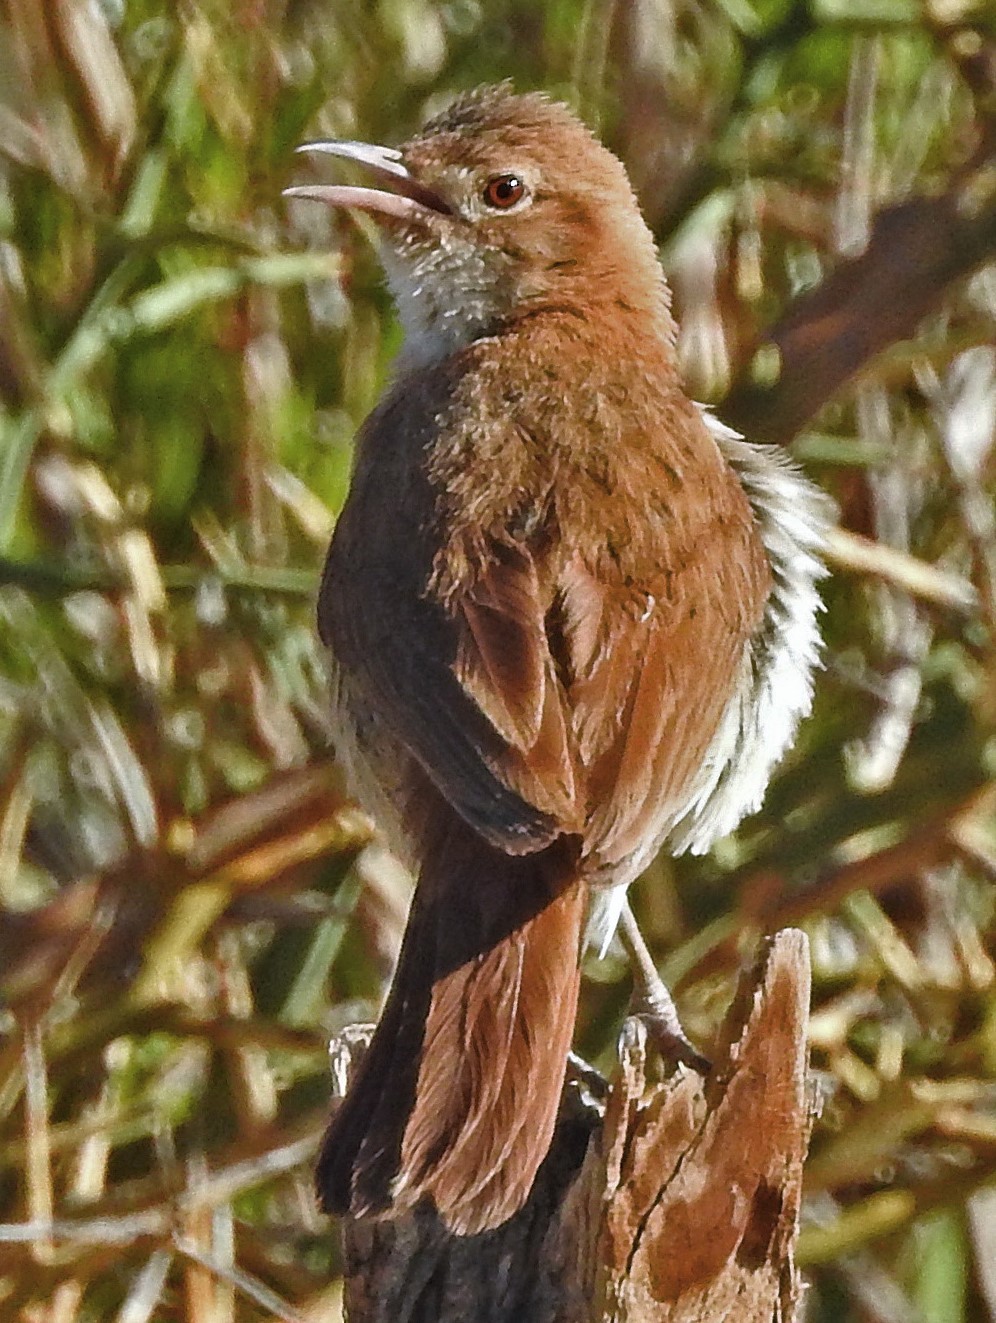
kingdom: Animalia
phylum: Chordata
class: Aves
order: Passeriformes
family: Furnariidae
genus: Furnarius
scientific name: Furnarius rufus
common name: Rufous hornero
